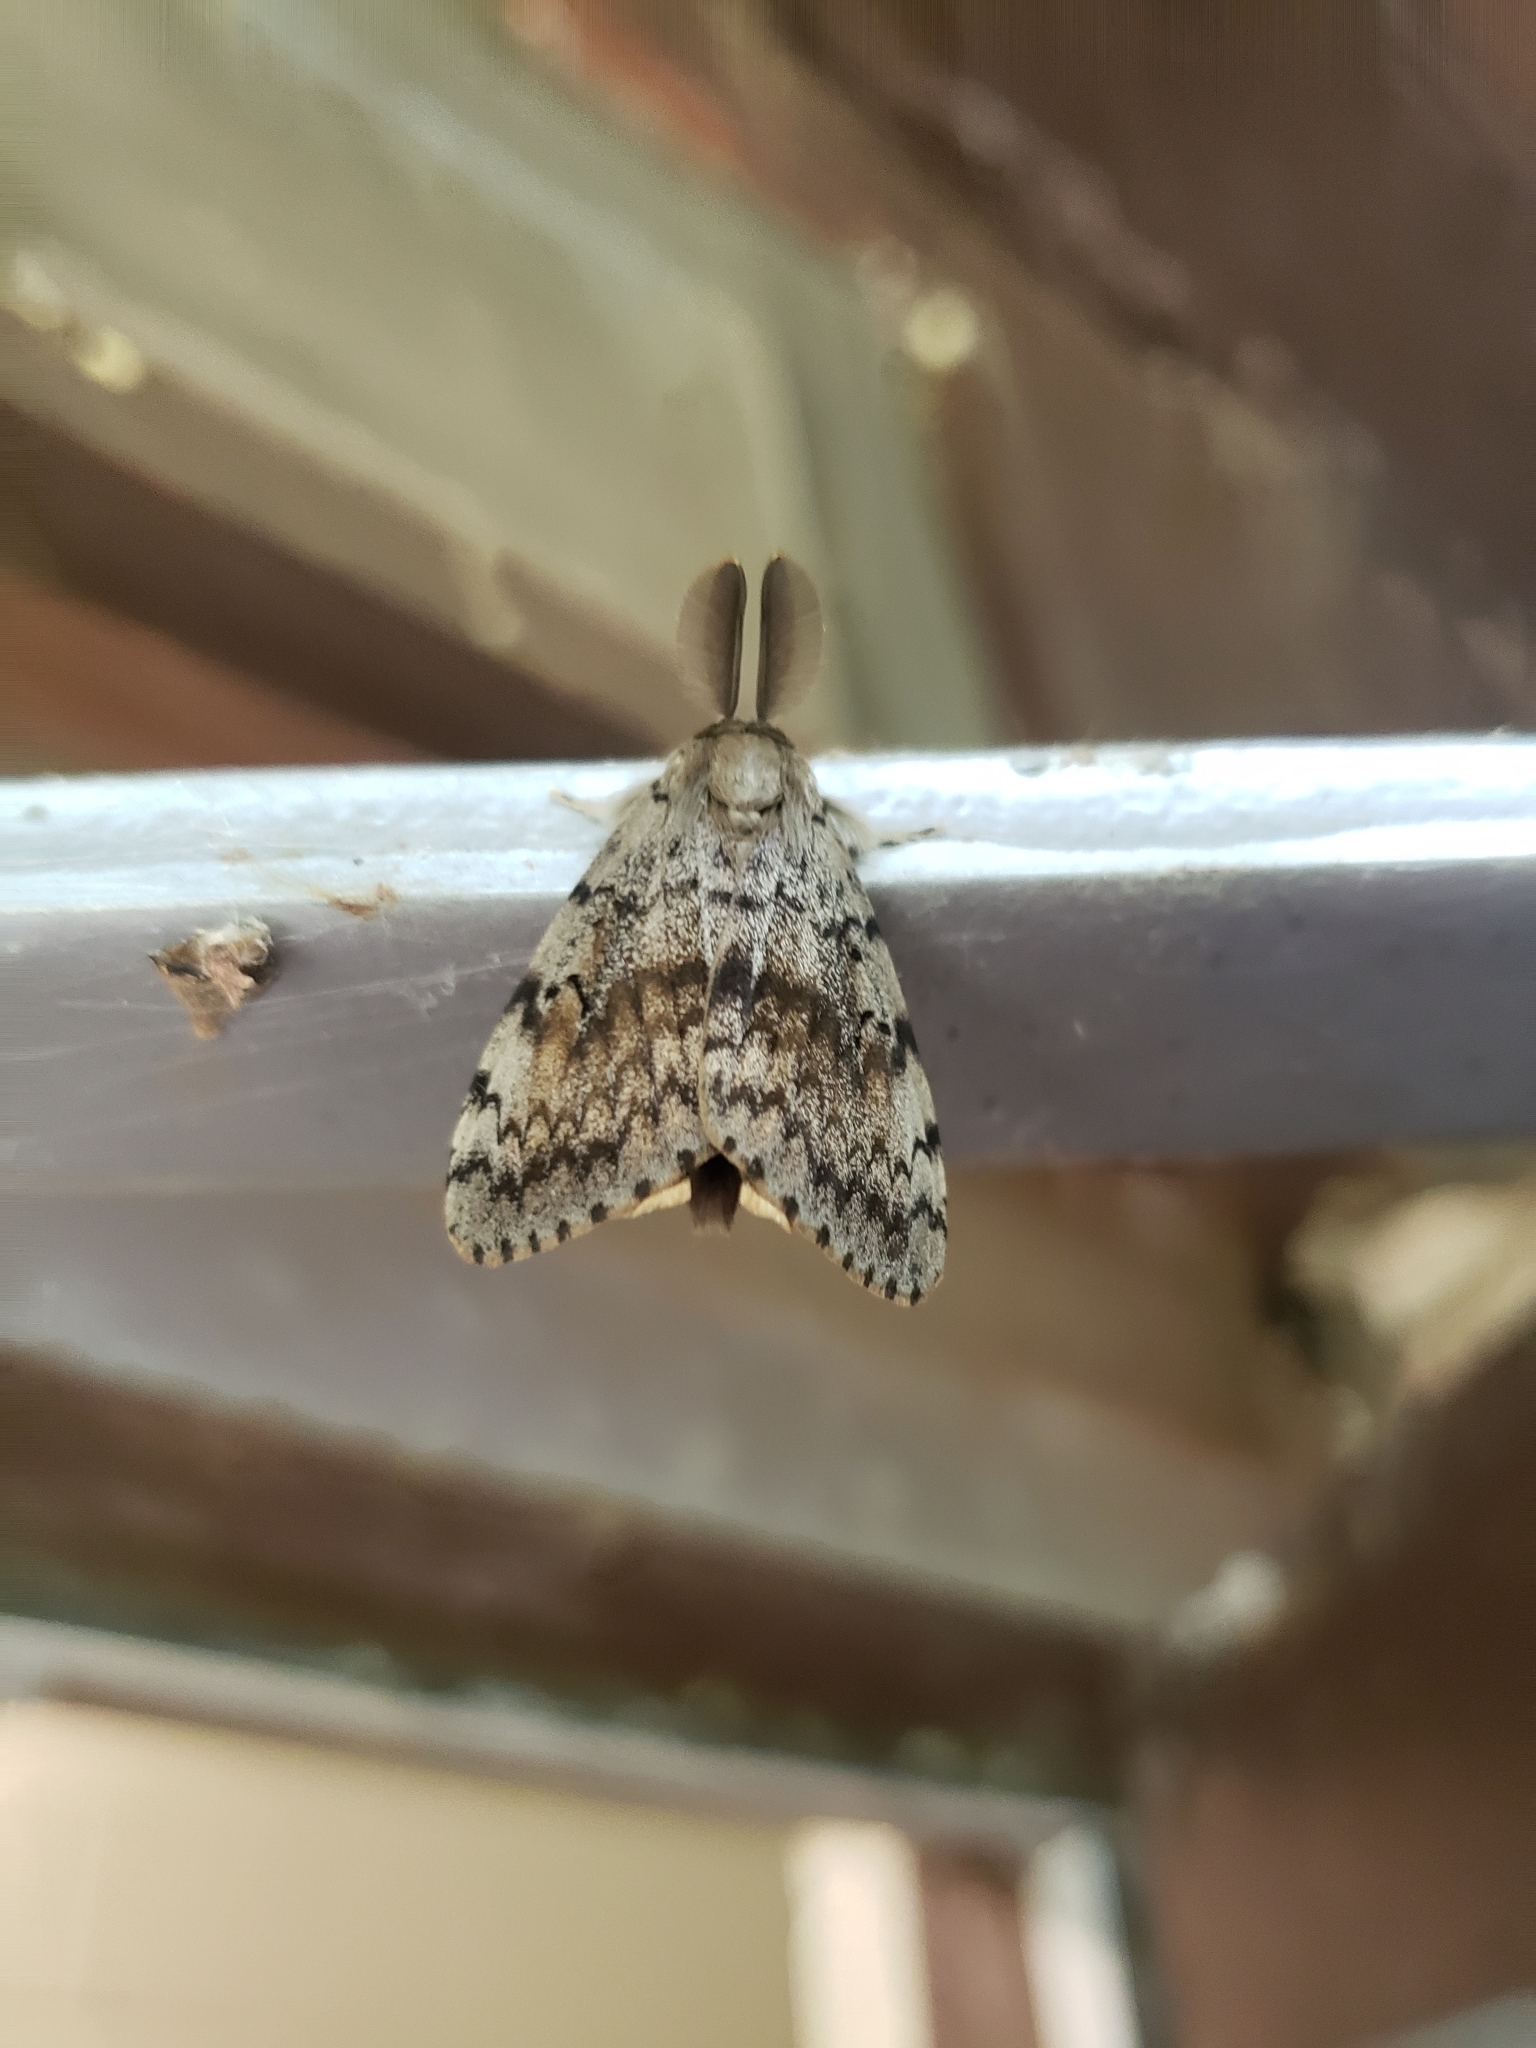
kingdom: Animalia
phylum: Arthropoda
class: Insecta
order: Lepidoptera
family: Erebidae
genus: Lymantria
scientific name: Lymantria dispar
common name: Gypsy moth
